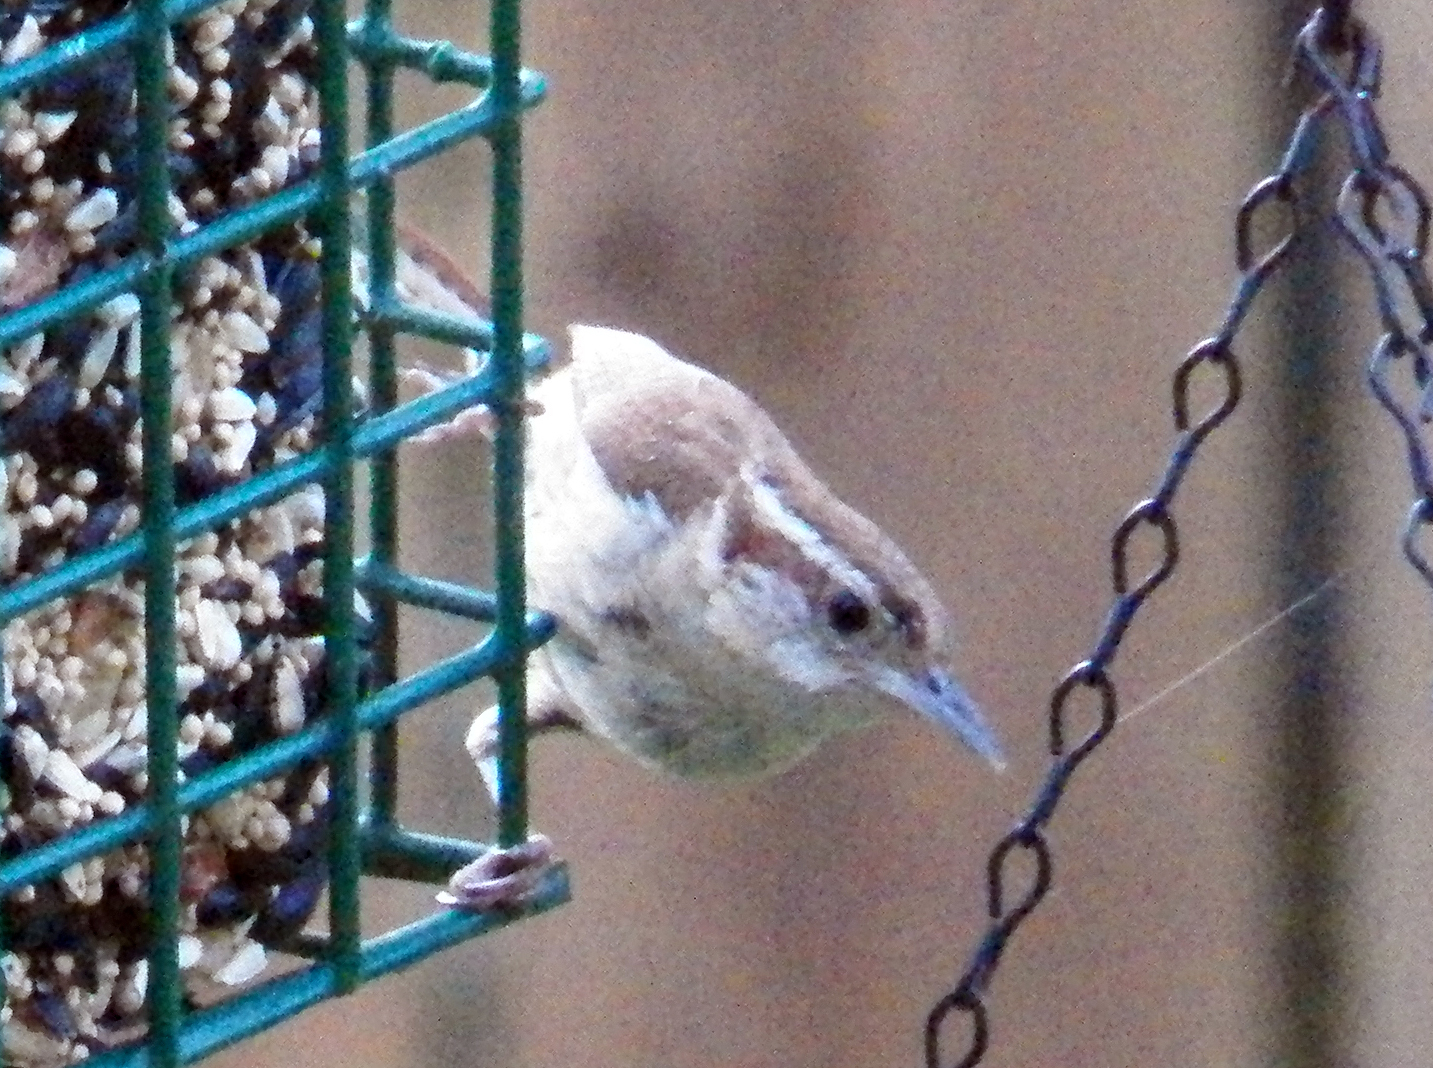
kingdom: Animalia
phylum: Chordata
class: Aves
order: Passeriformes
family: Troglodytidae
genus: Thryothorus
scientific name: Thryothorus ludovicianus
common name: Carolina wren
